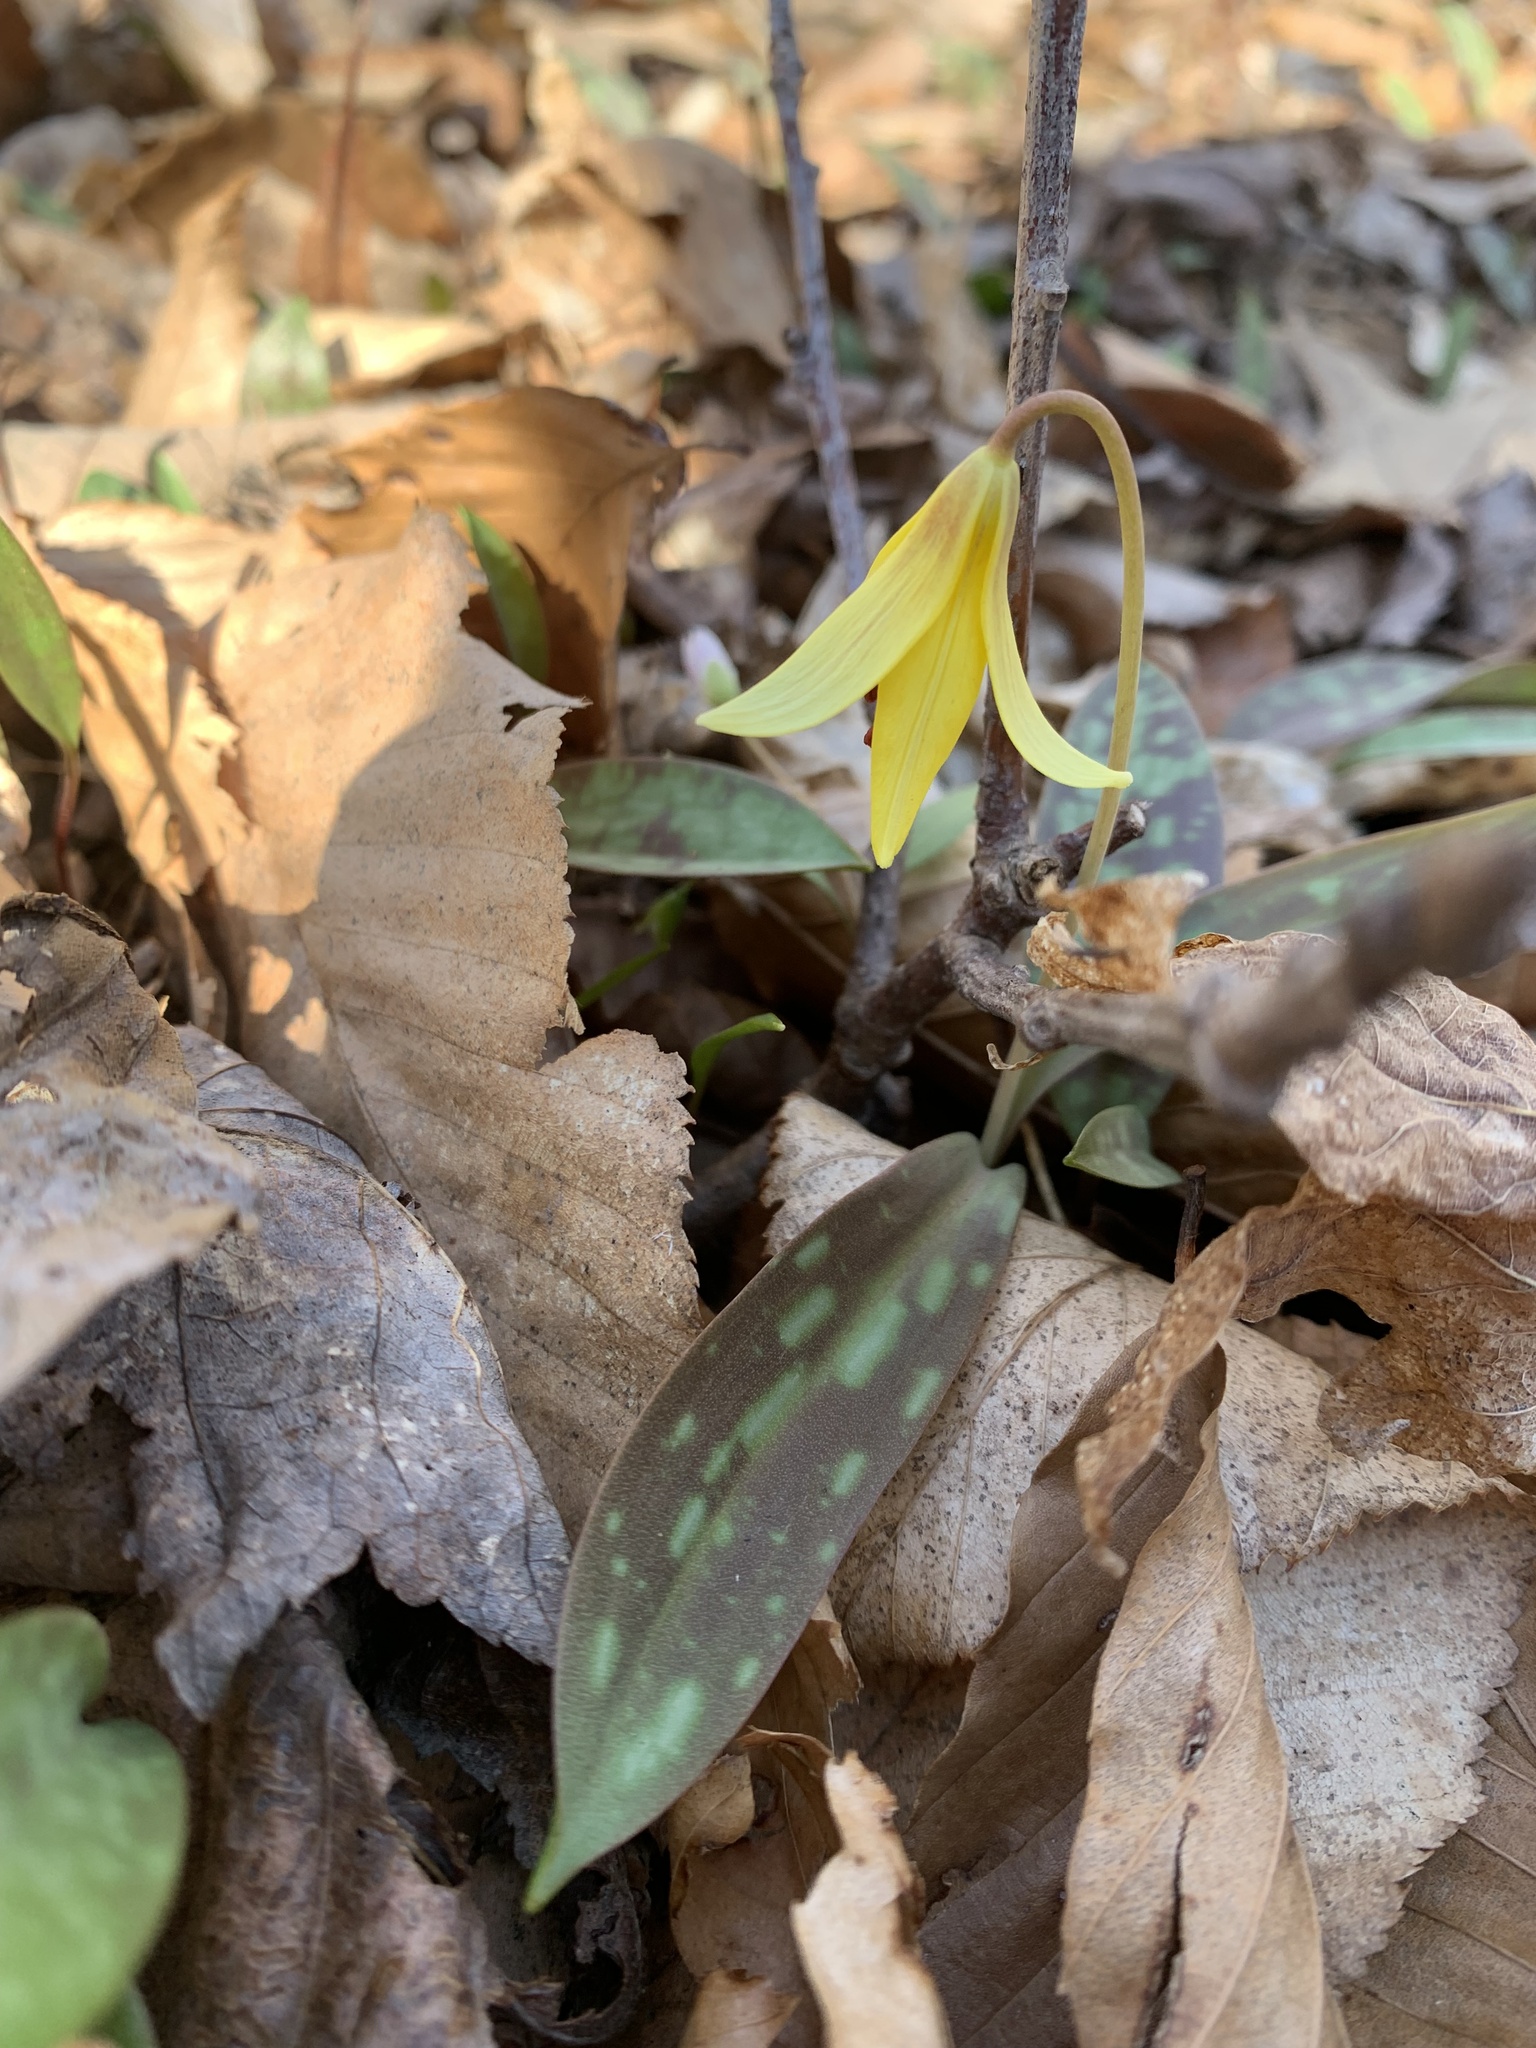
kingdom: Plantae
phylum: Tracheophyta
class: Liliopsida
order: Liliales
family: Liliaceae
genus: Erythronium
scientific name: Erythronium americanum
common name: Yellow adder's-tongue
